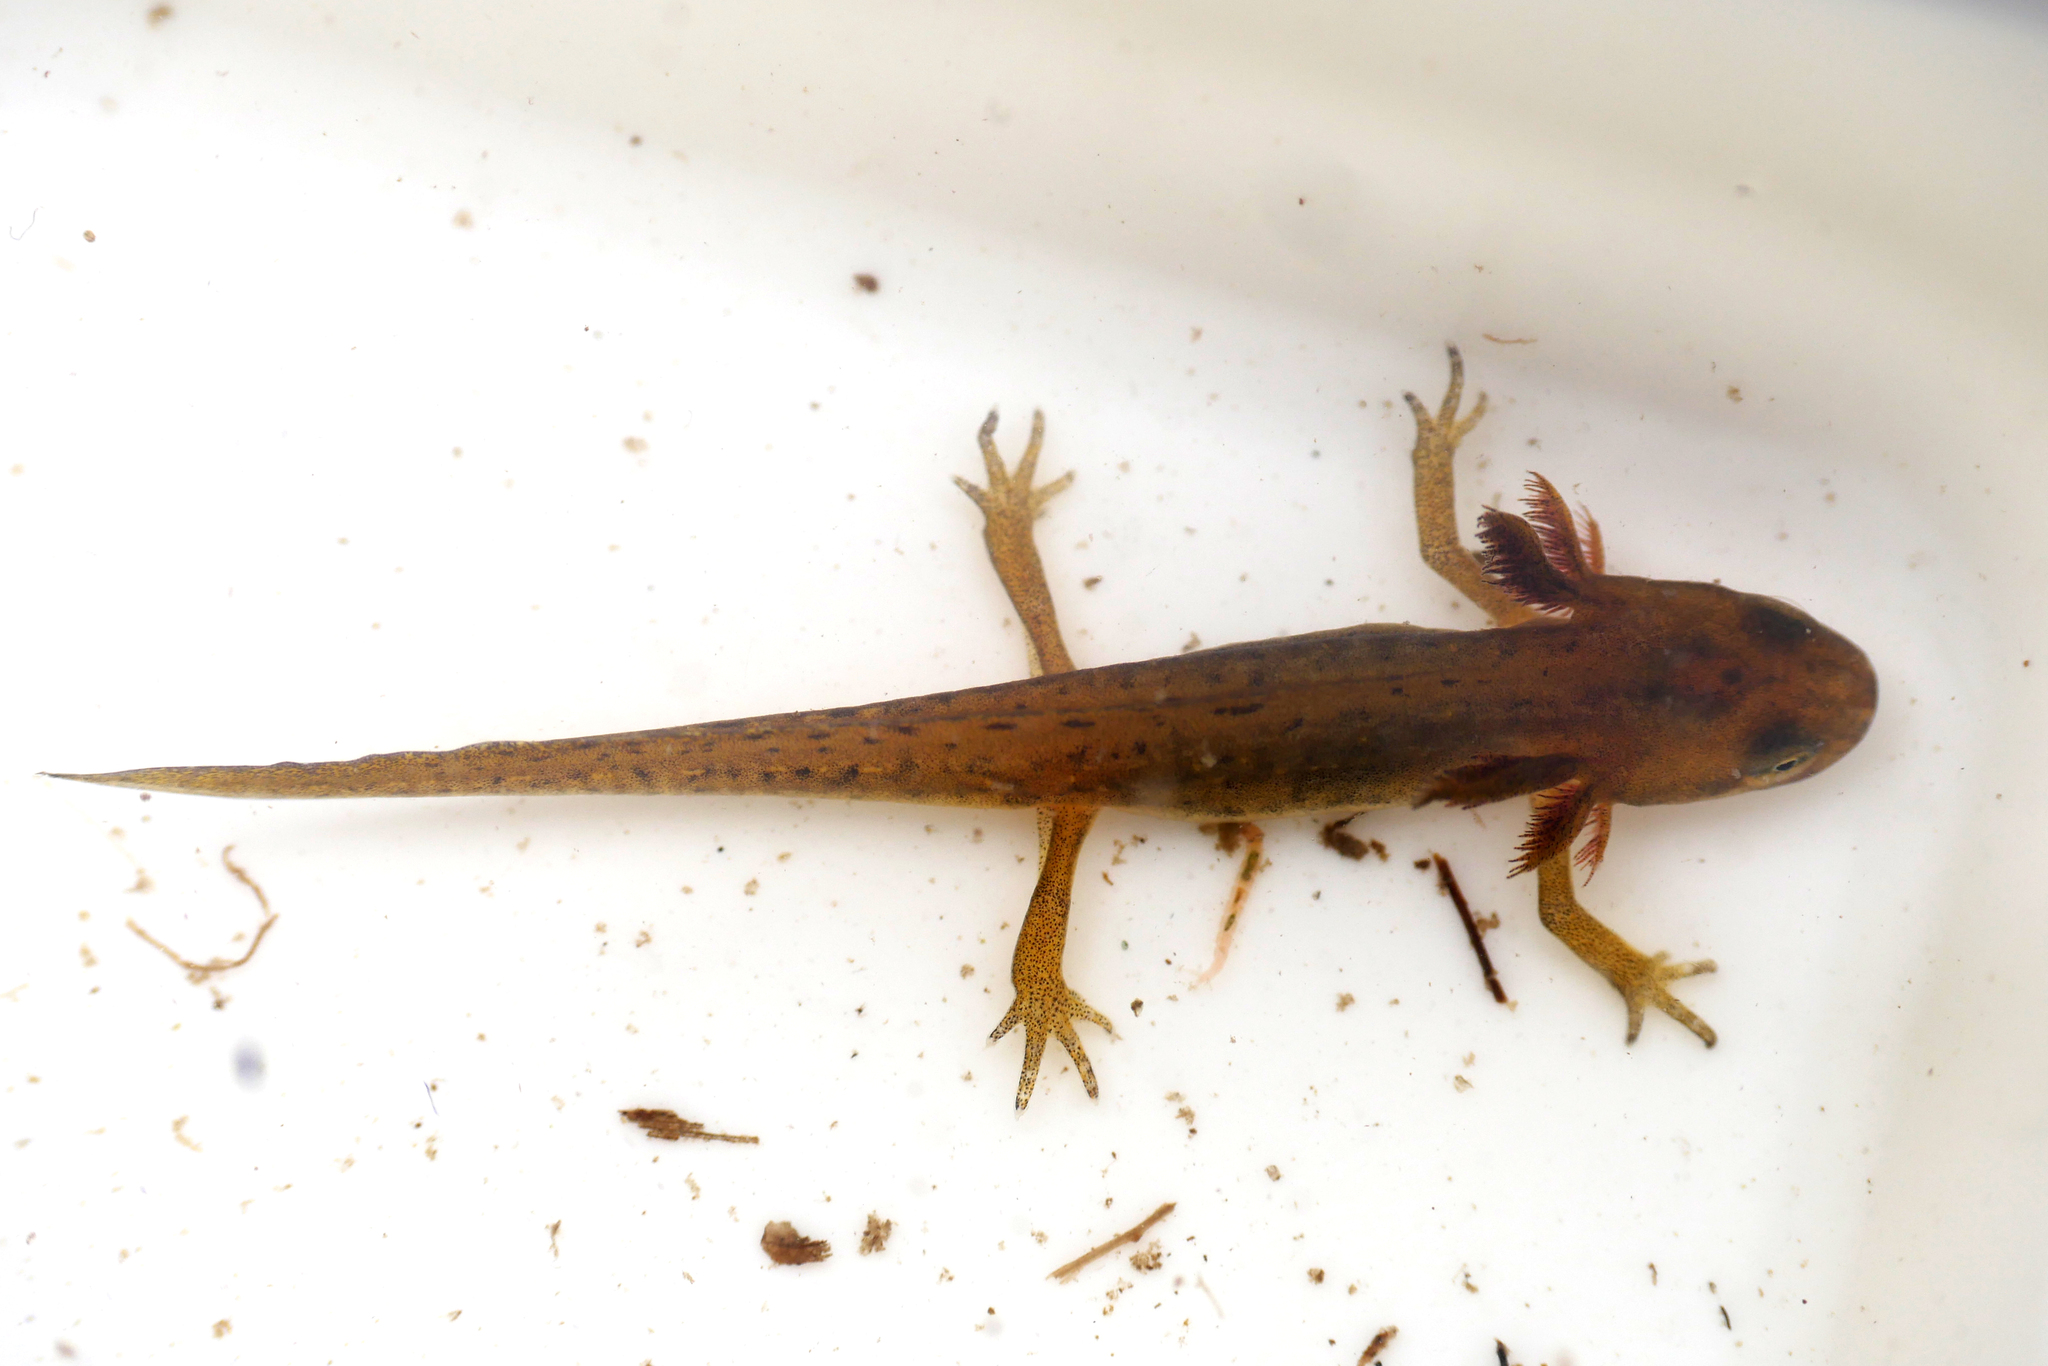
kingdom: Animalia
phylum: Chordata
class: Amphibia
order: Caudata
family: Salamandridae
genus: Lissotriton
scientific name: Lissotriton vulgaris
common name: Smooth newt
